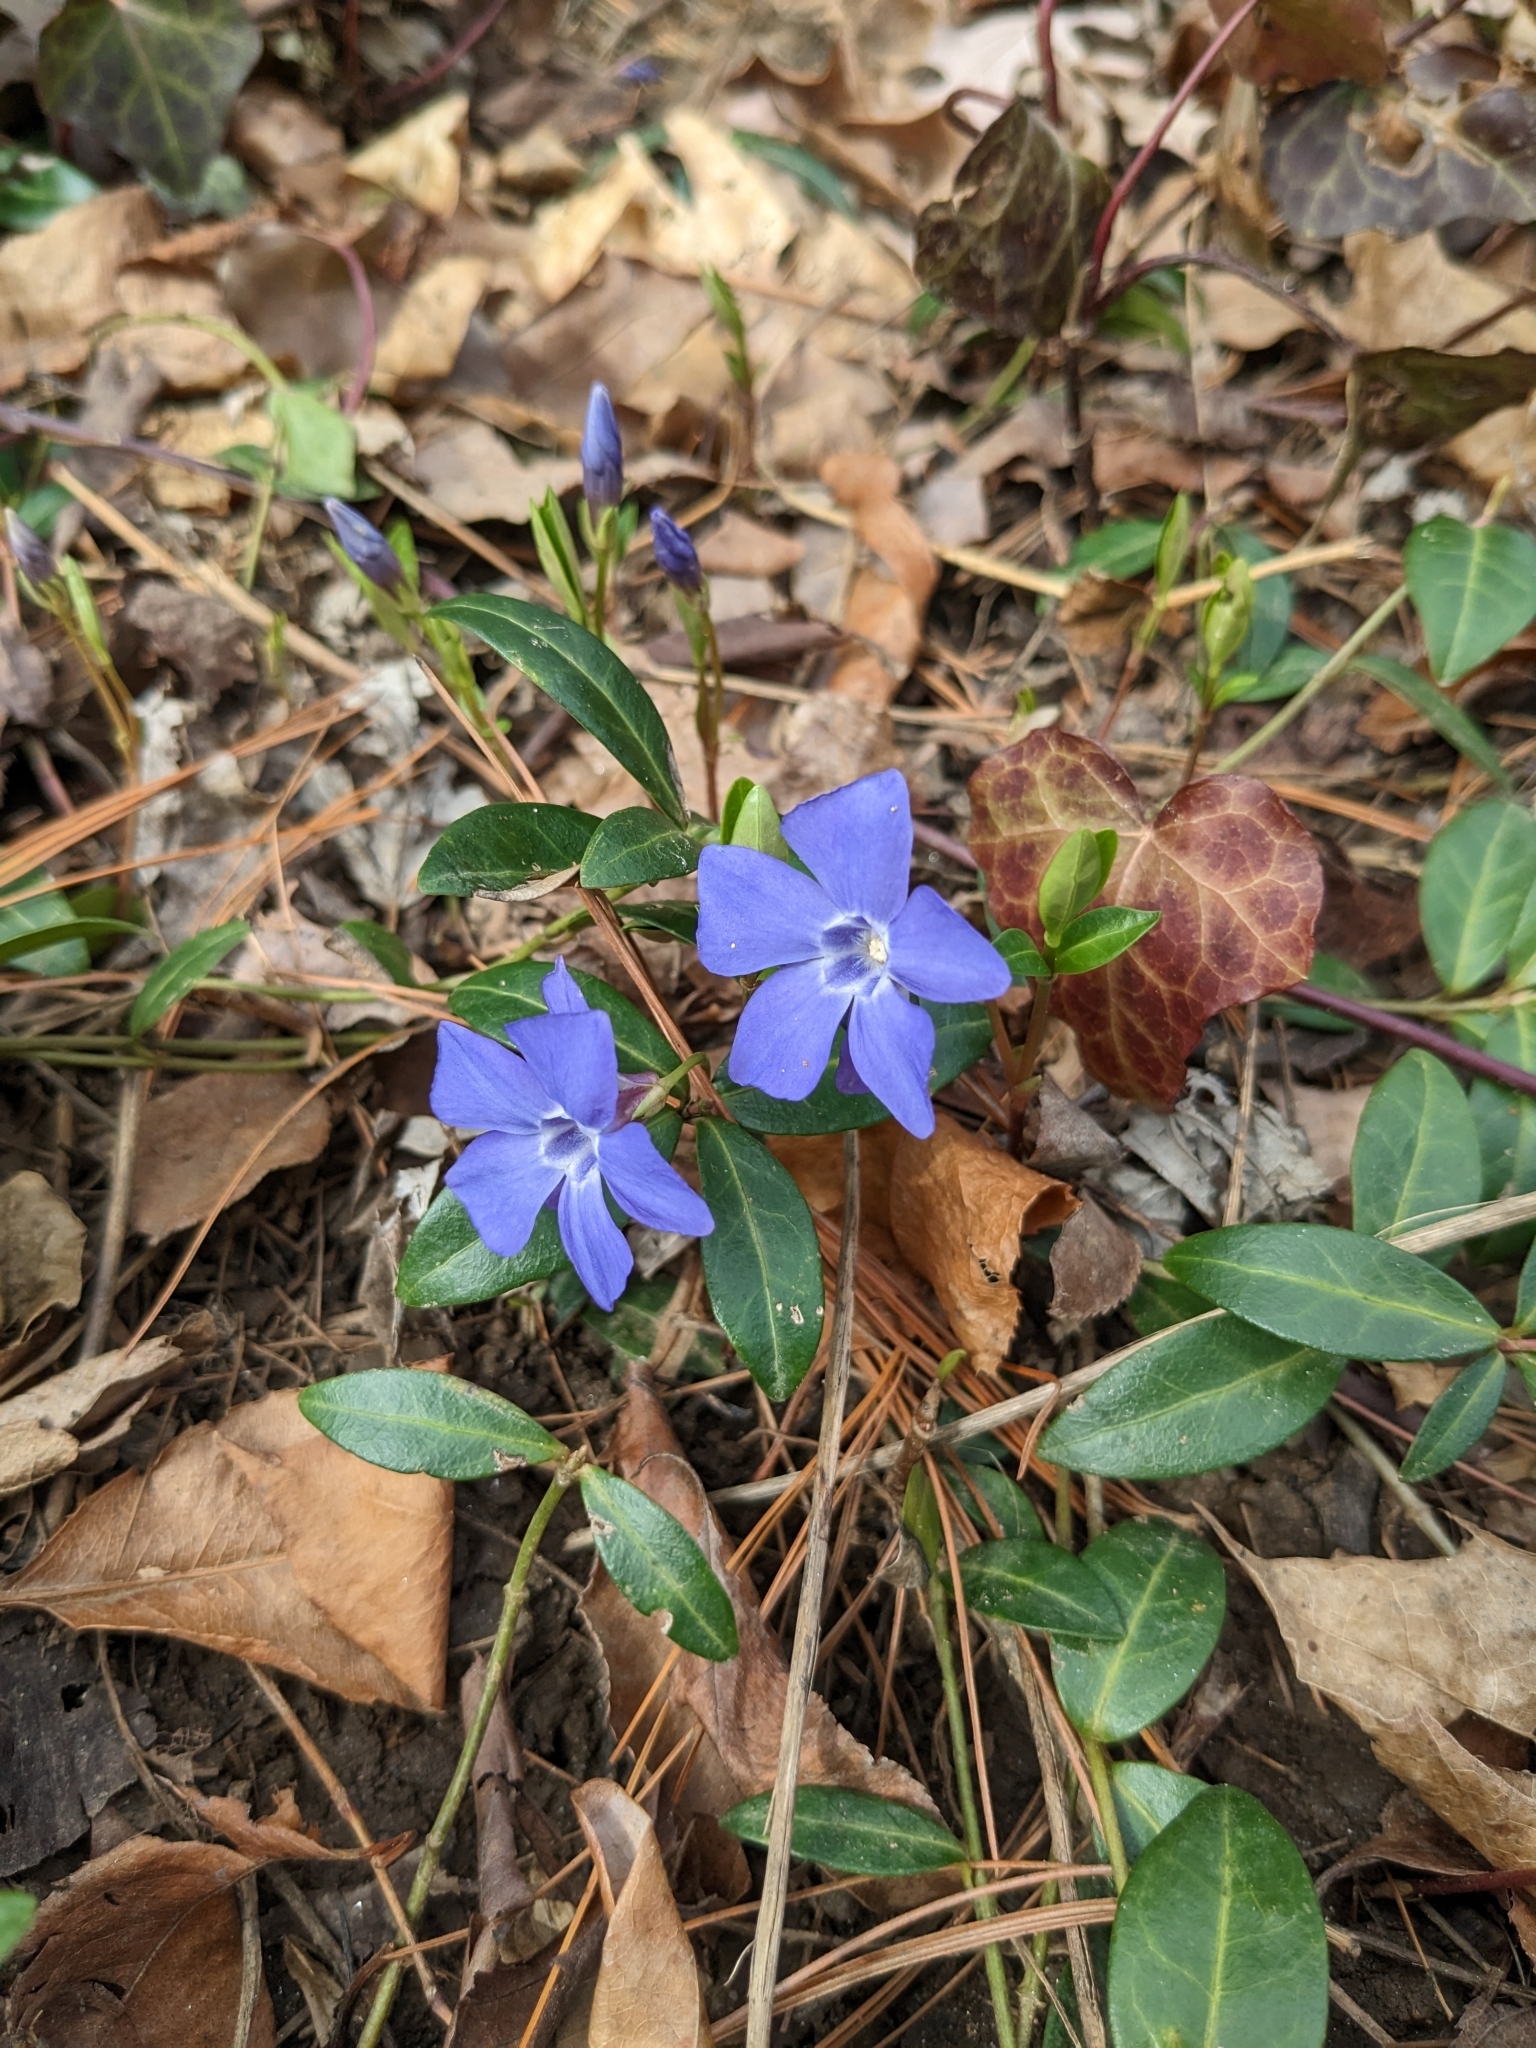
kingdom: Plantae
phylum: Tracheophyta
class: Magnoliopsida
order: Gentianales
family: Apocynaceae
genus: Vinca
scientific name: Vinca minor
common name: Lesser periwinkle
